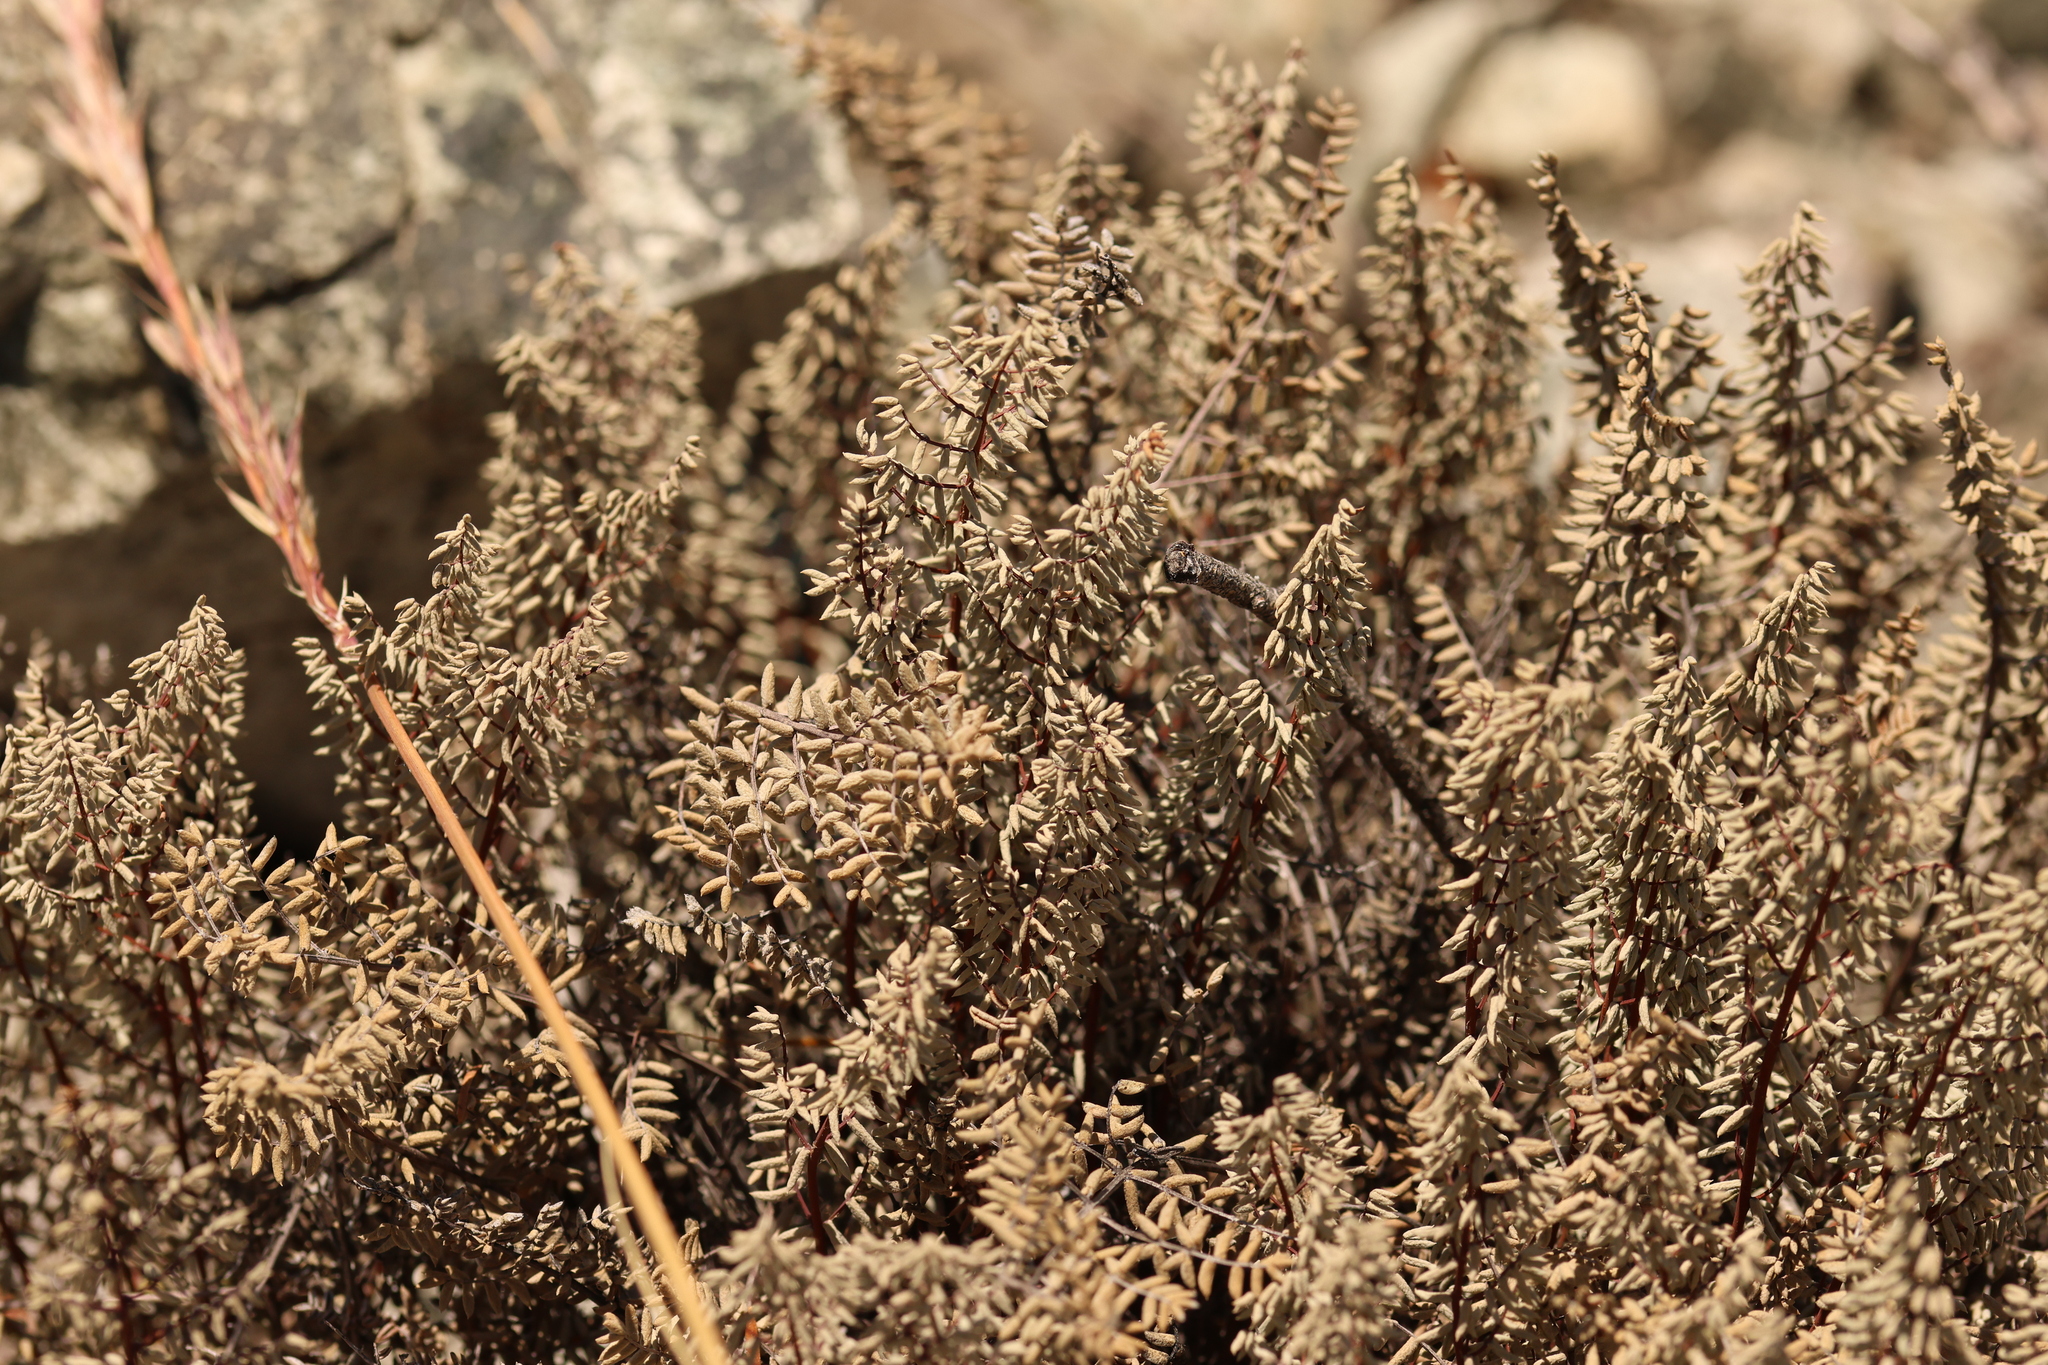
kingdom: Plantae
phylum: Tracheophyta
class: Polypodiopsida
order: Polypodiales
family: Pteridaceae
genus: Pellaea
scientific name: Pellaea mucronata
